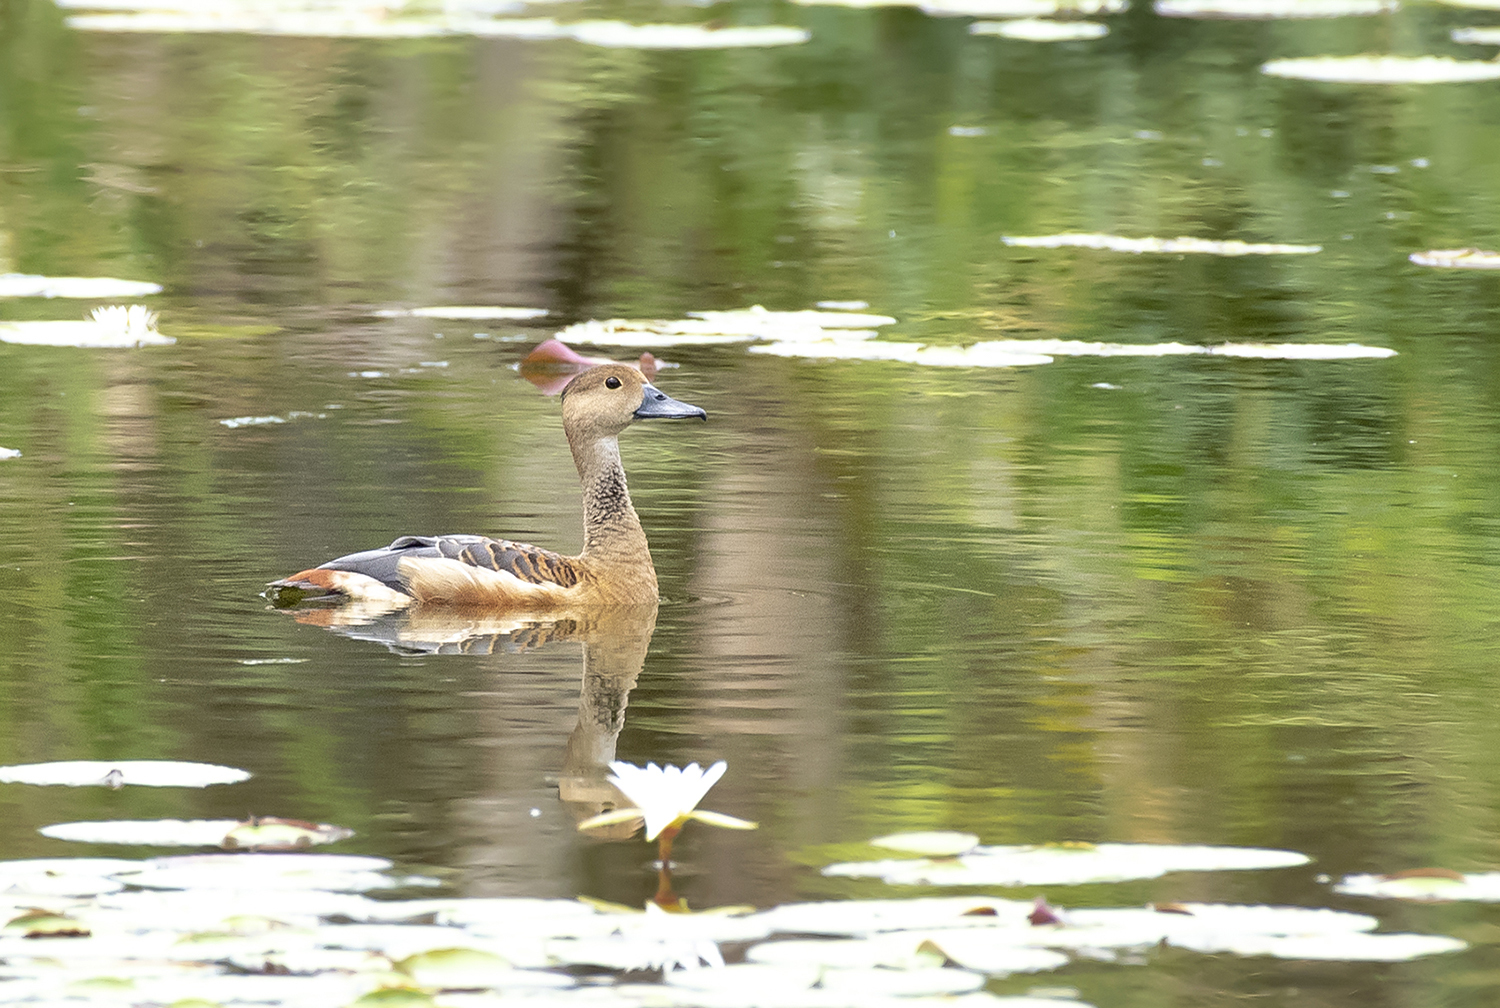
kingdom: Animalia
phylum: Chordata
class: Aves
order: Anseriformes
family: Anatidae
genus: Dendrocygna
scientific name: Dendrocygna javanica
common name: Lesser whistling-duck
